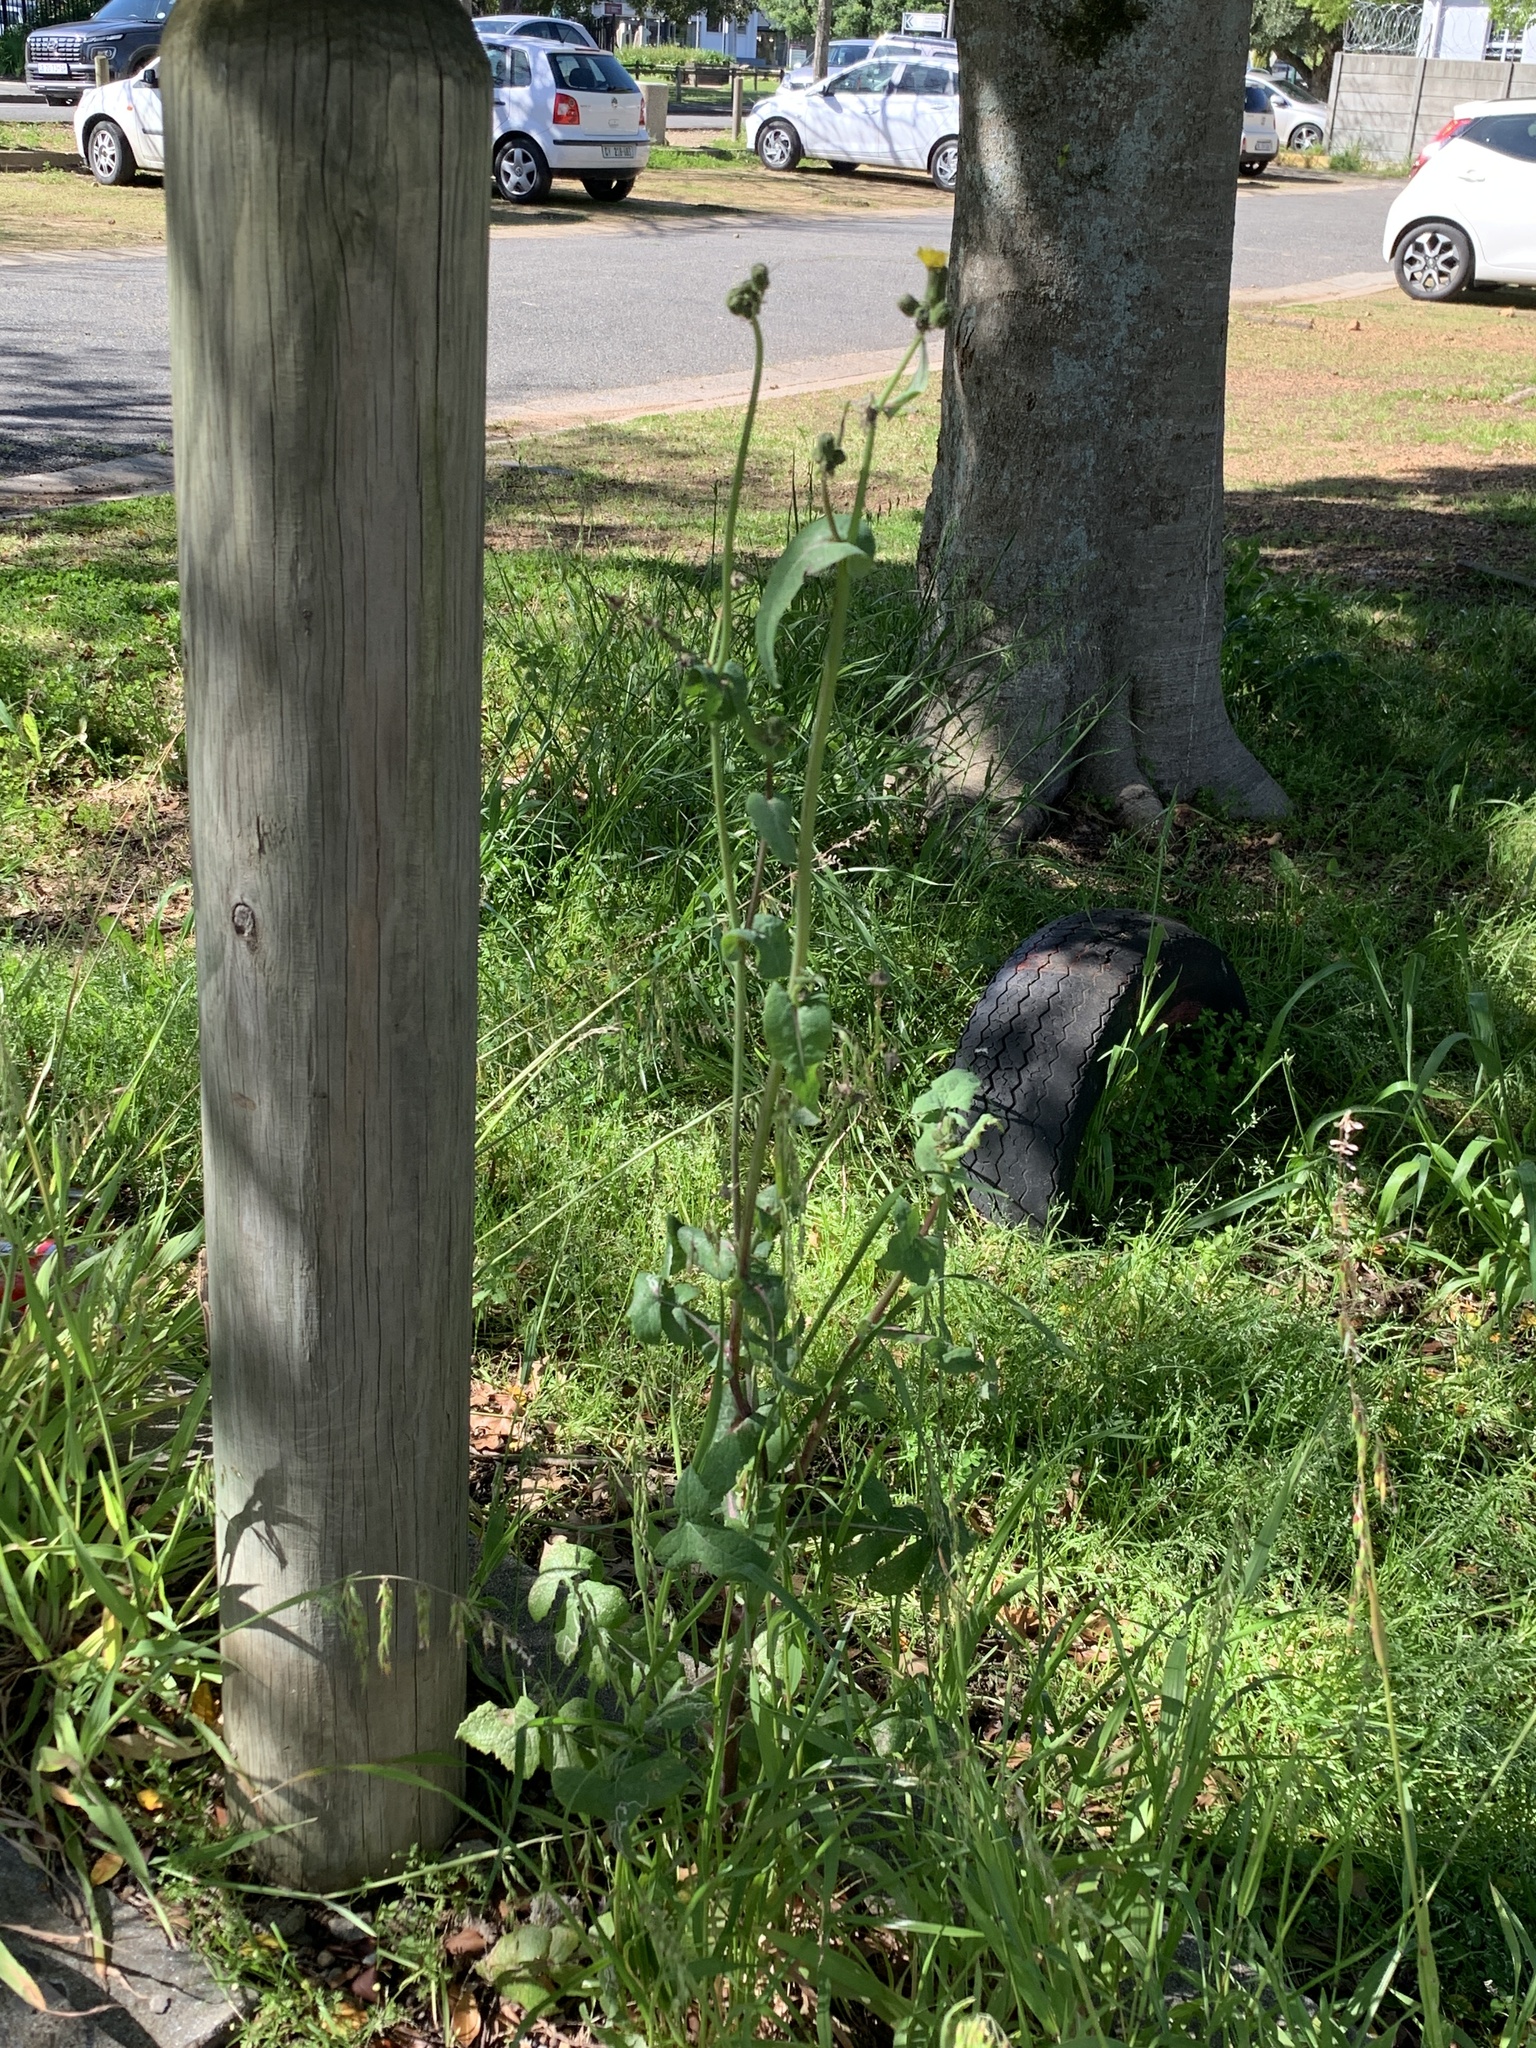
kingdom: Plantae
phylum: Tracheophyta
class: Magnoliopsida
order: Asterales
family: Asteraceae
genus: Sonchus
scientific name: Sonchus oleraceus
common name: Common sowthistle
